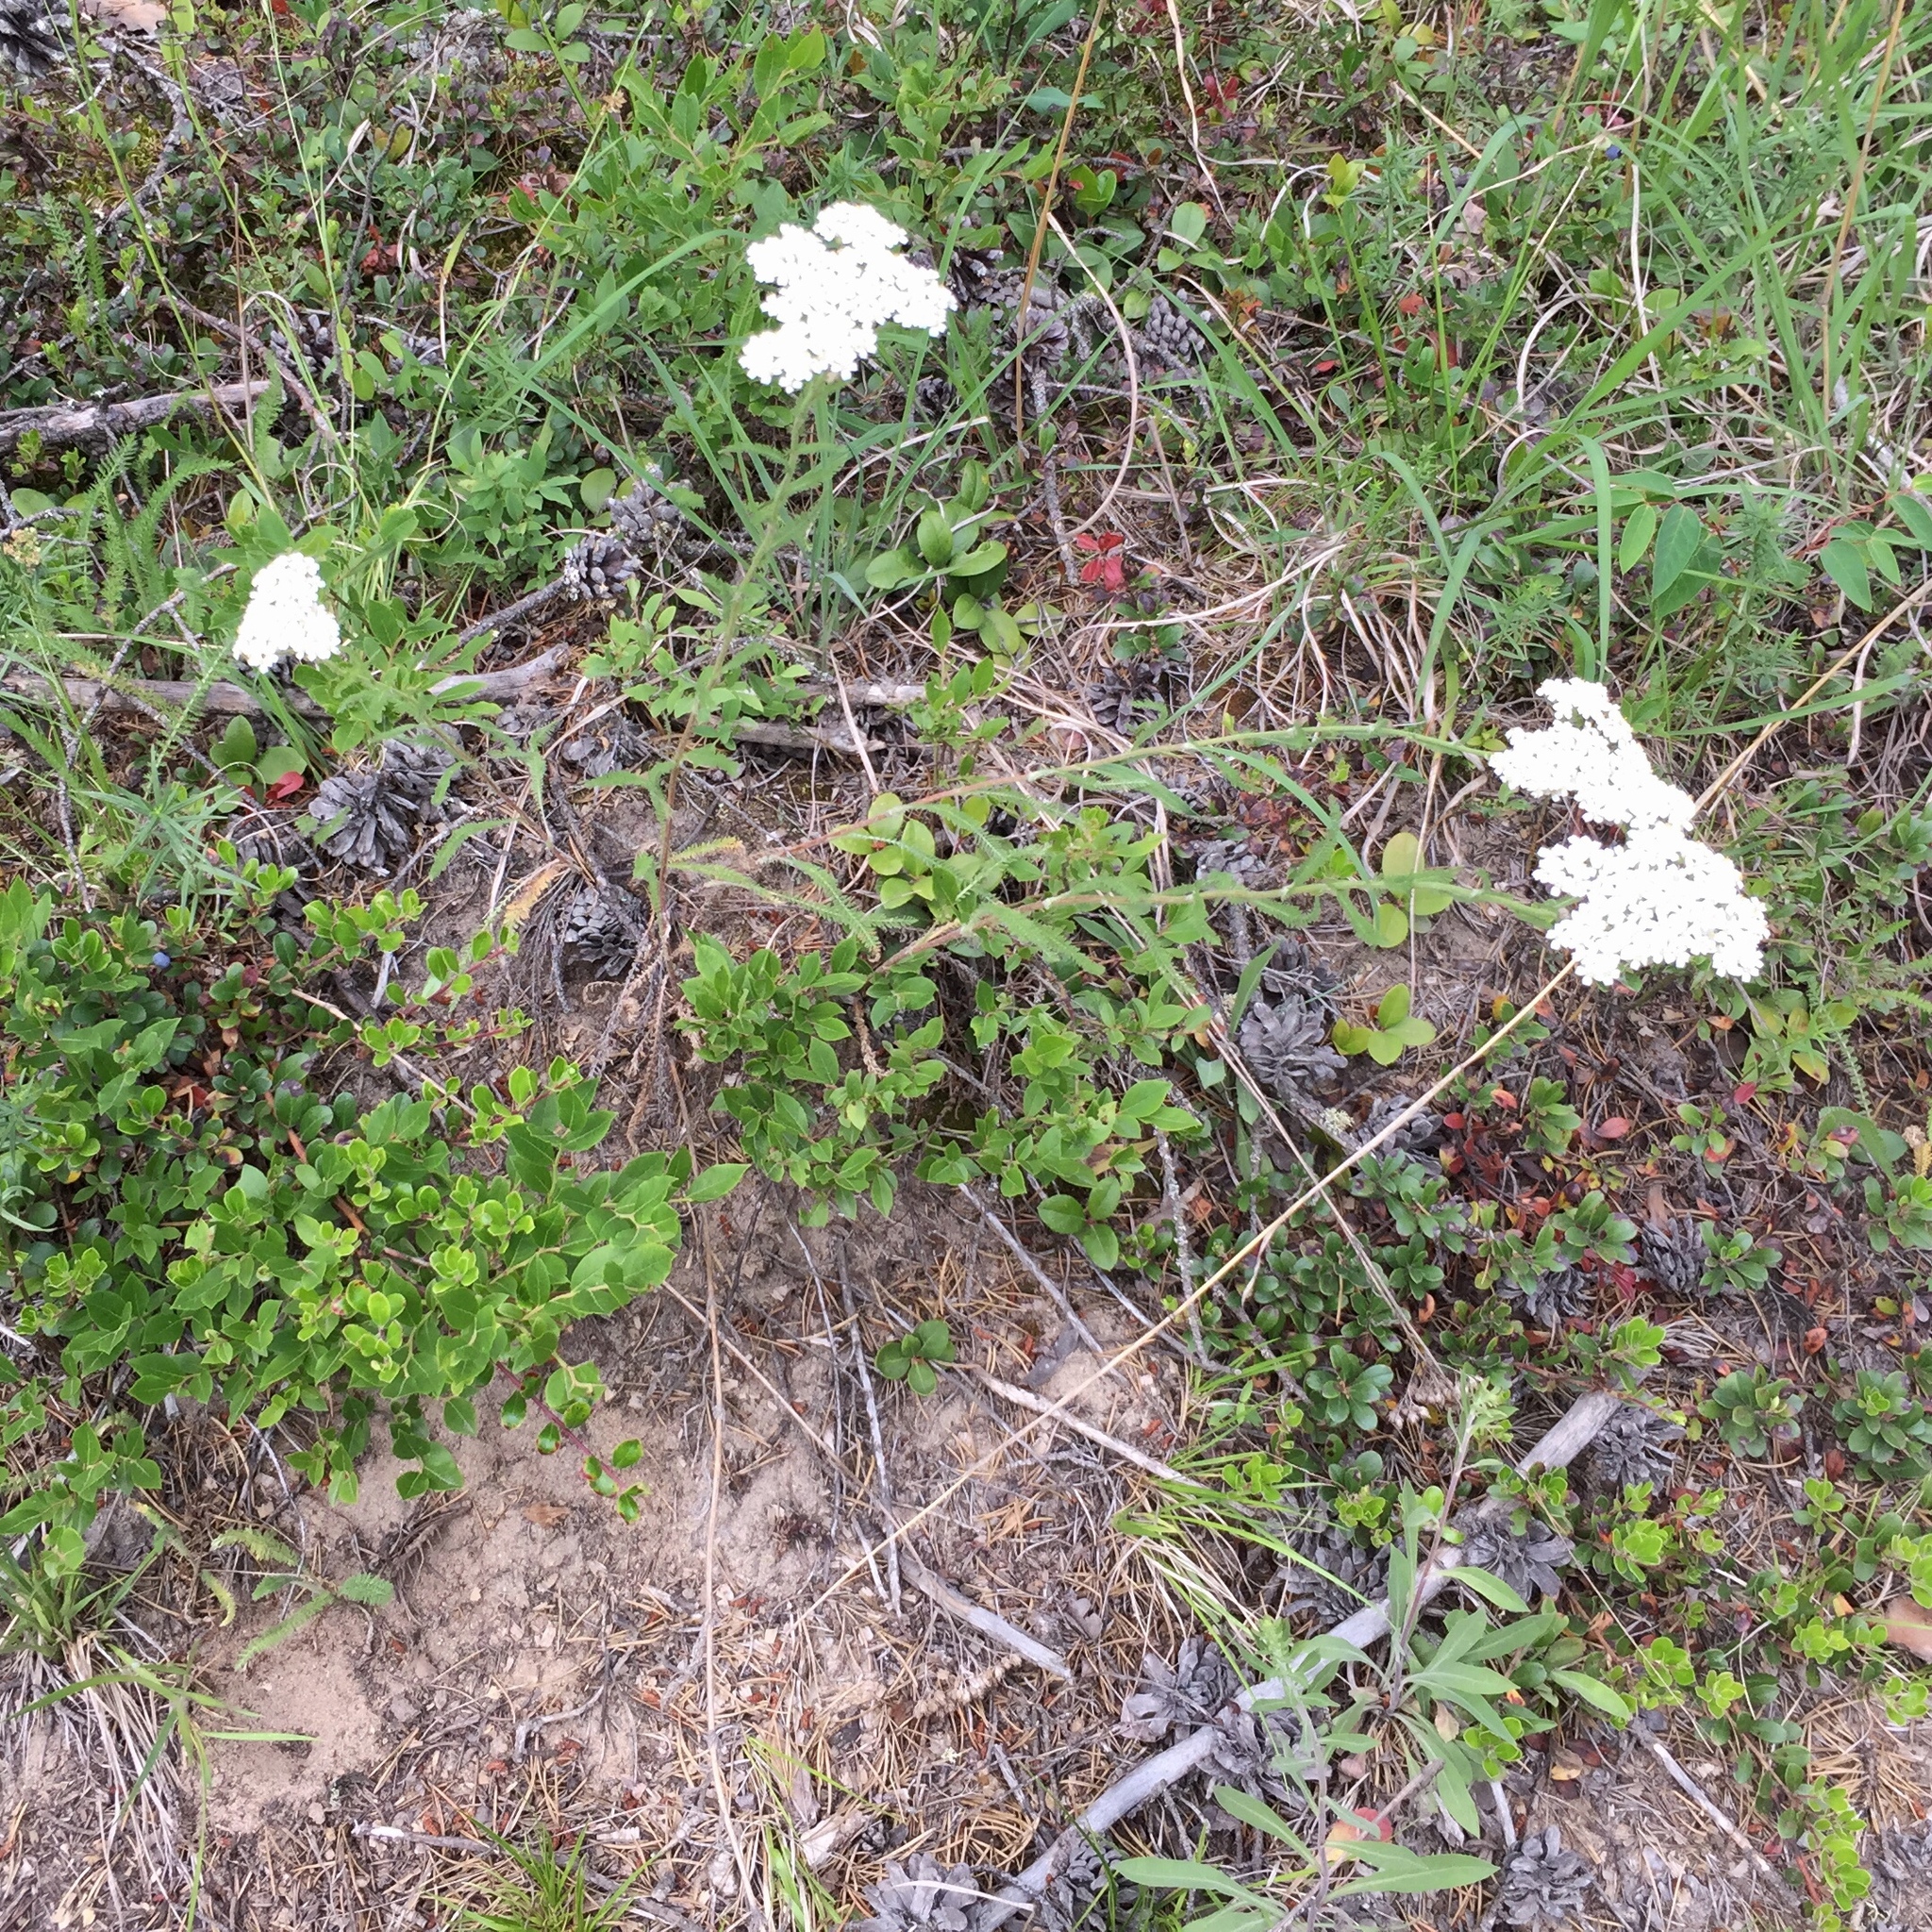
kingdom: Plantae
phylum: Tracheophyta
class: Magnoliopsida
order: Asterales
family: Asteraceae
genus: Achillea
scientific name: Achillea millefolium
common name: Yarrow
